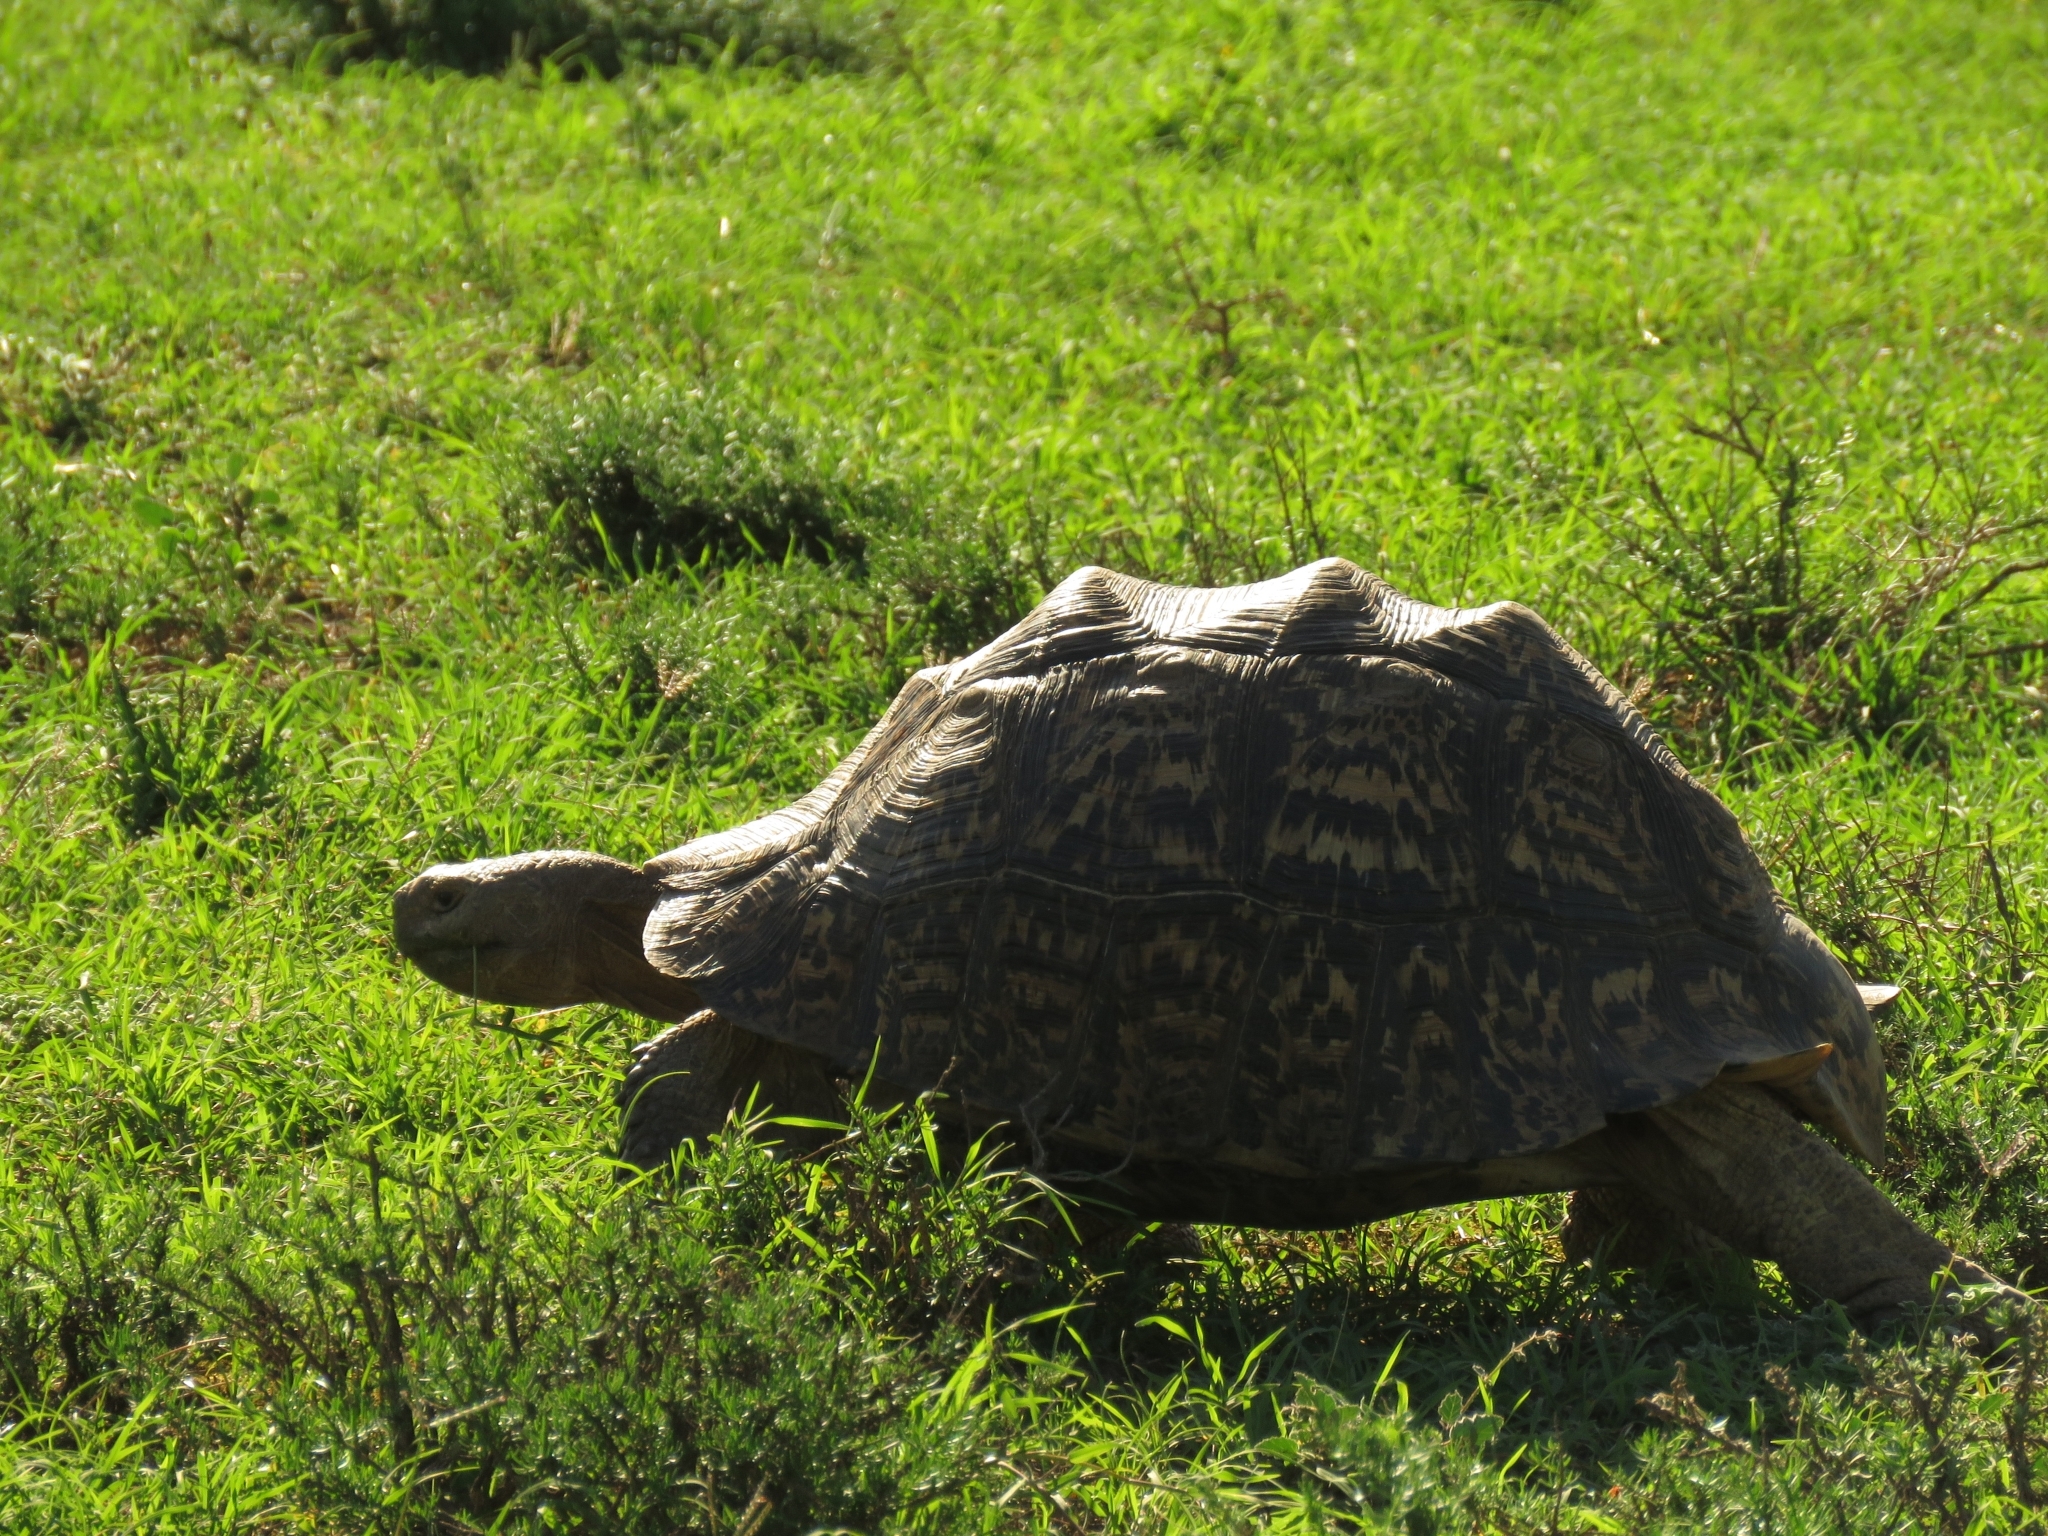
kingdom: Animalia
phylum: Chordata
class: Testudines
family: Testudinidae
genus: Stigmochelys
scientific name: Stigmochelys pardalis
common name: Leopard tortoise
